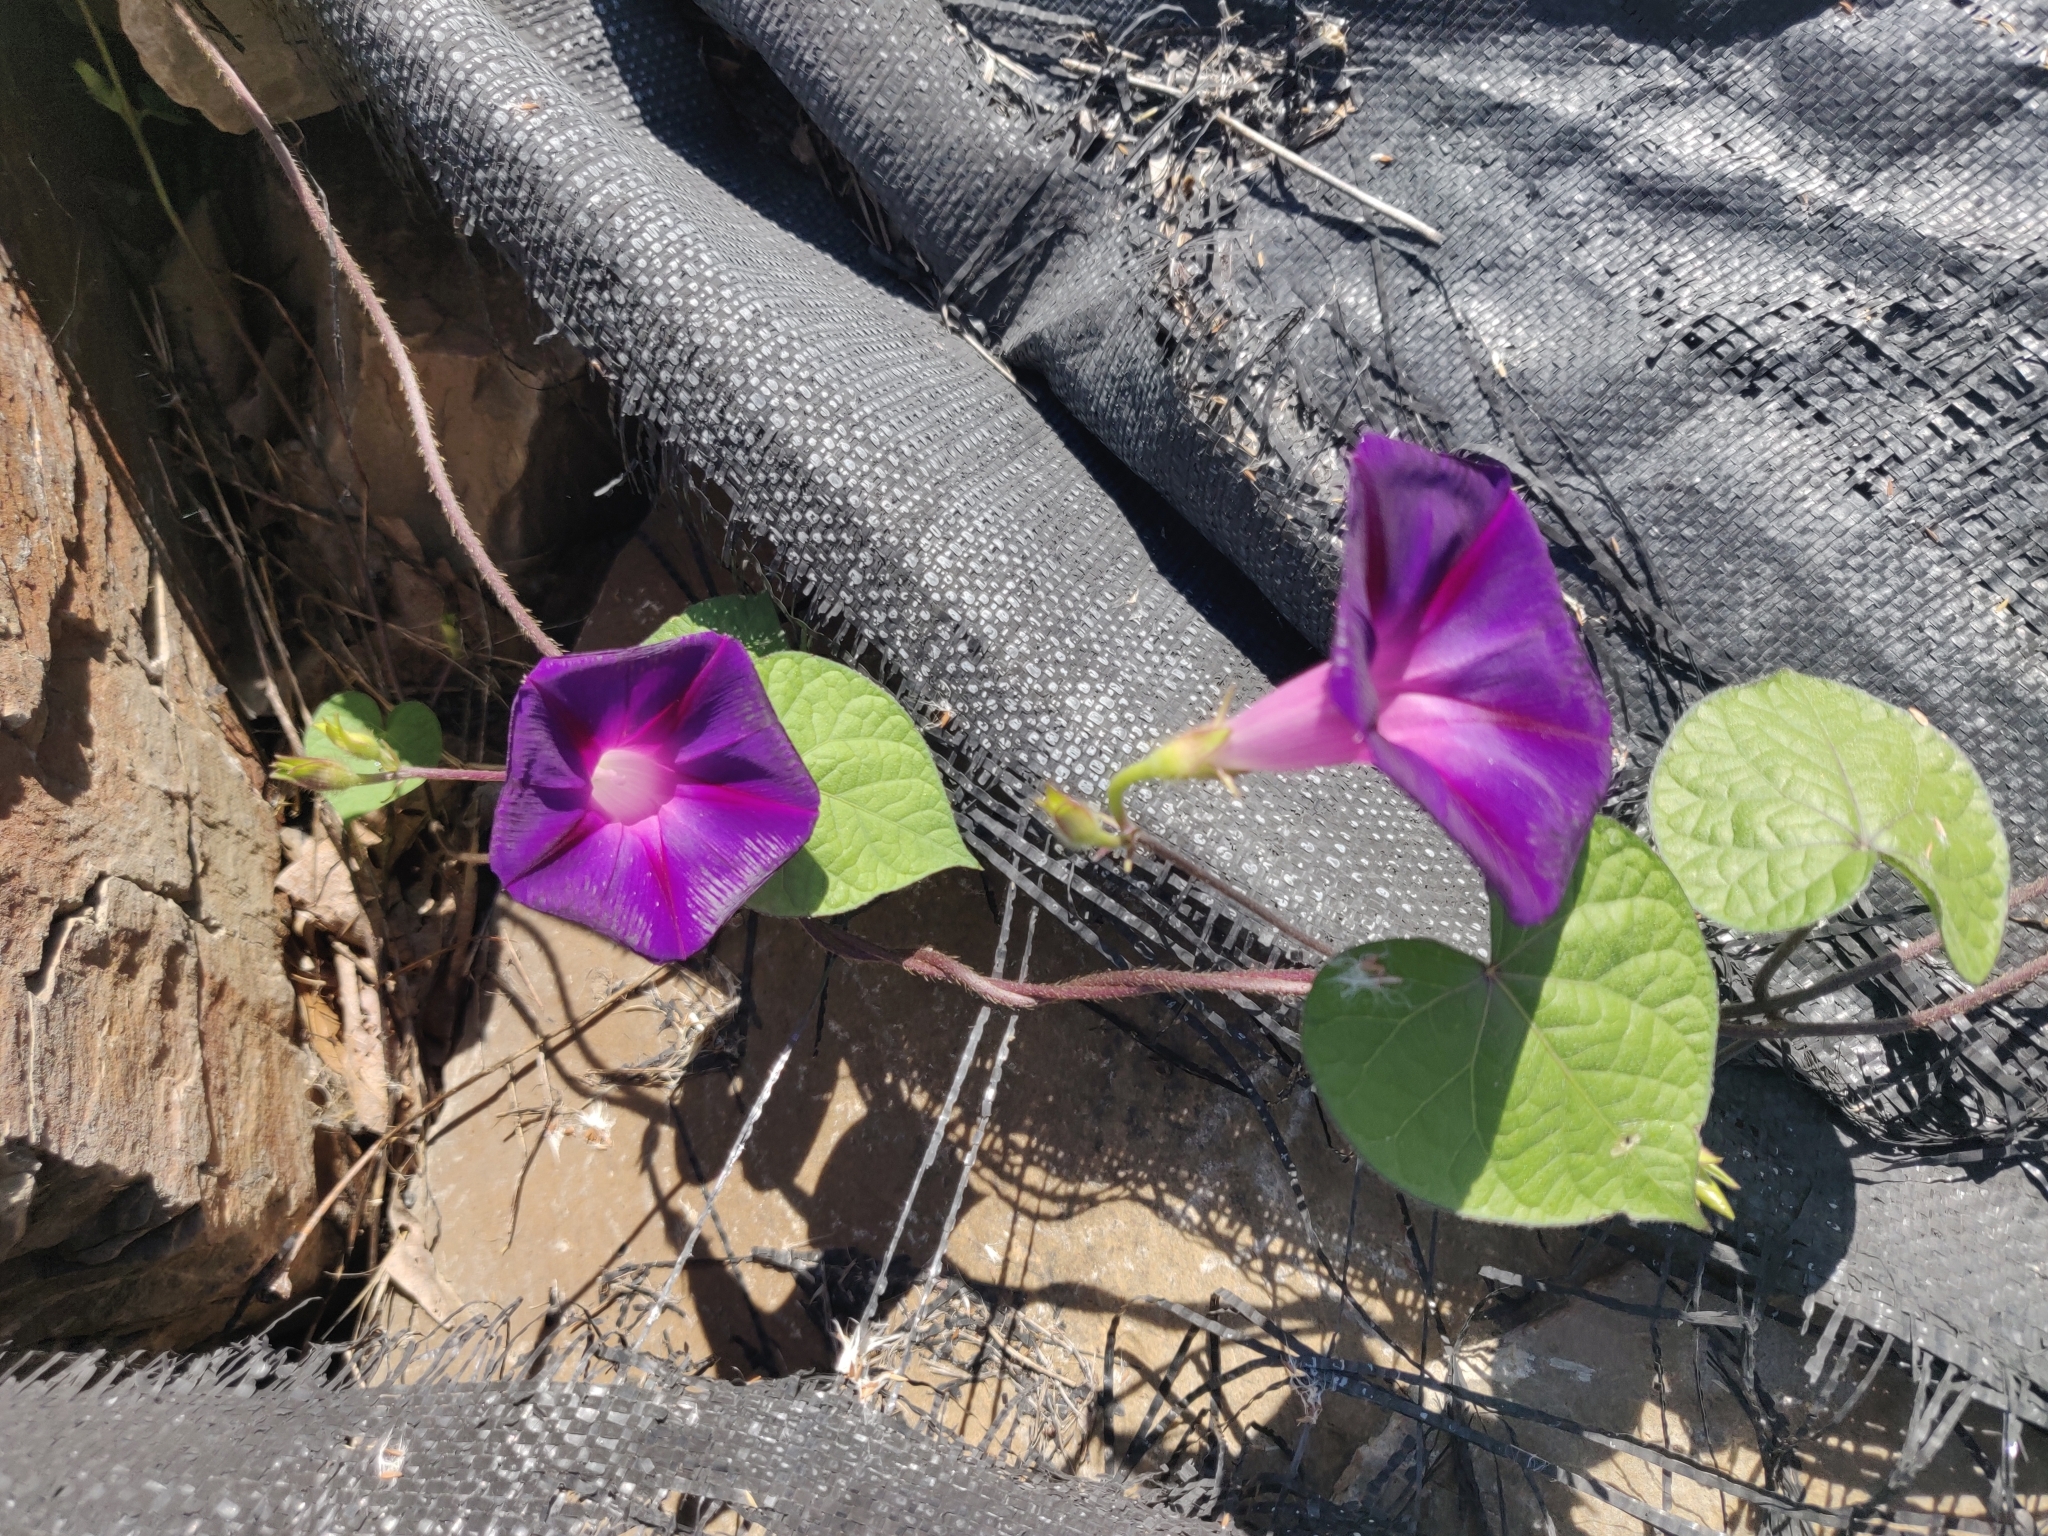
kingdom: Plantae
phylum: Tracheophyta
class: Magnoliopsida
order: Solanales
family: Convolvulaceae
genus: Ipomoea
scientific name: Ipomoea purpurea
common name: Common morning-glory
